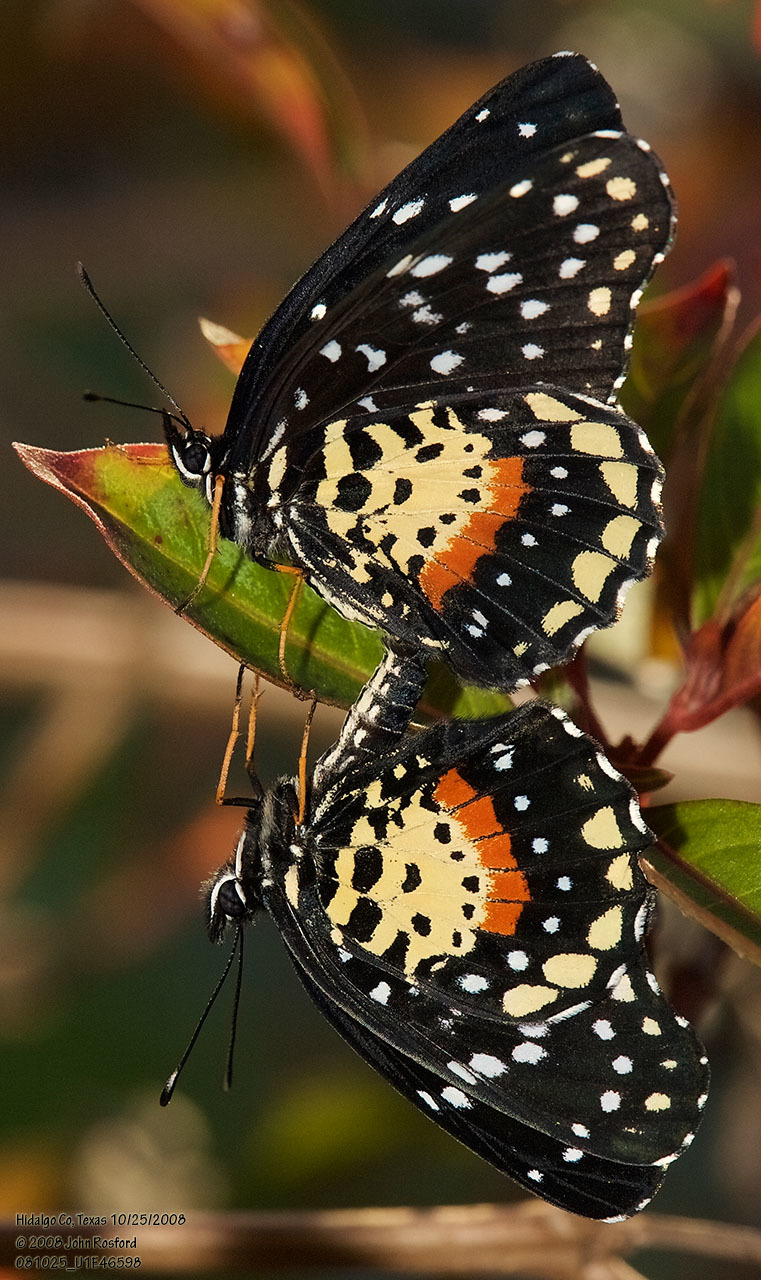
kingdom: Animalia
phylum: Arthropoda
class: Insecta
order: Lepidoptera
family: Nymphalidae
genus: Chlosyne
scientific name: Chlosyne janais
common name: Crimson patch
